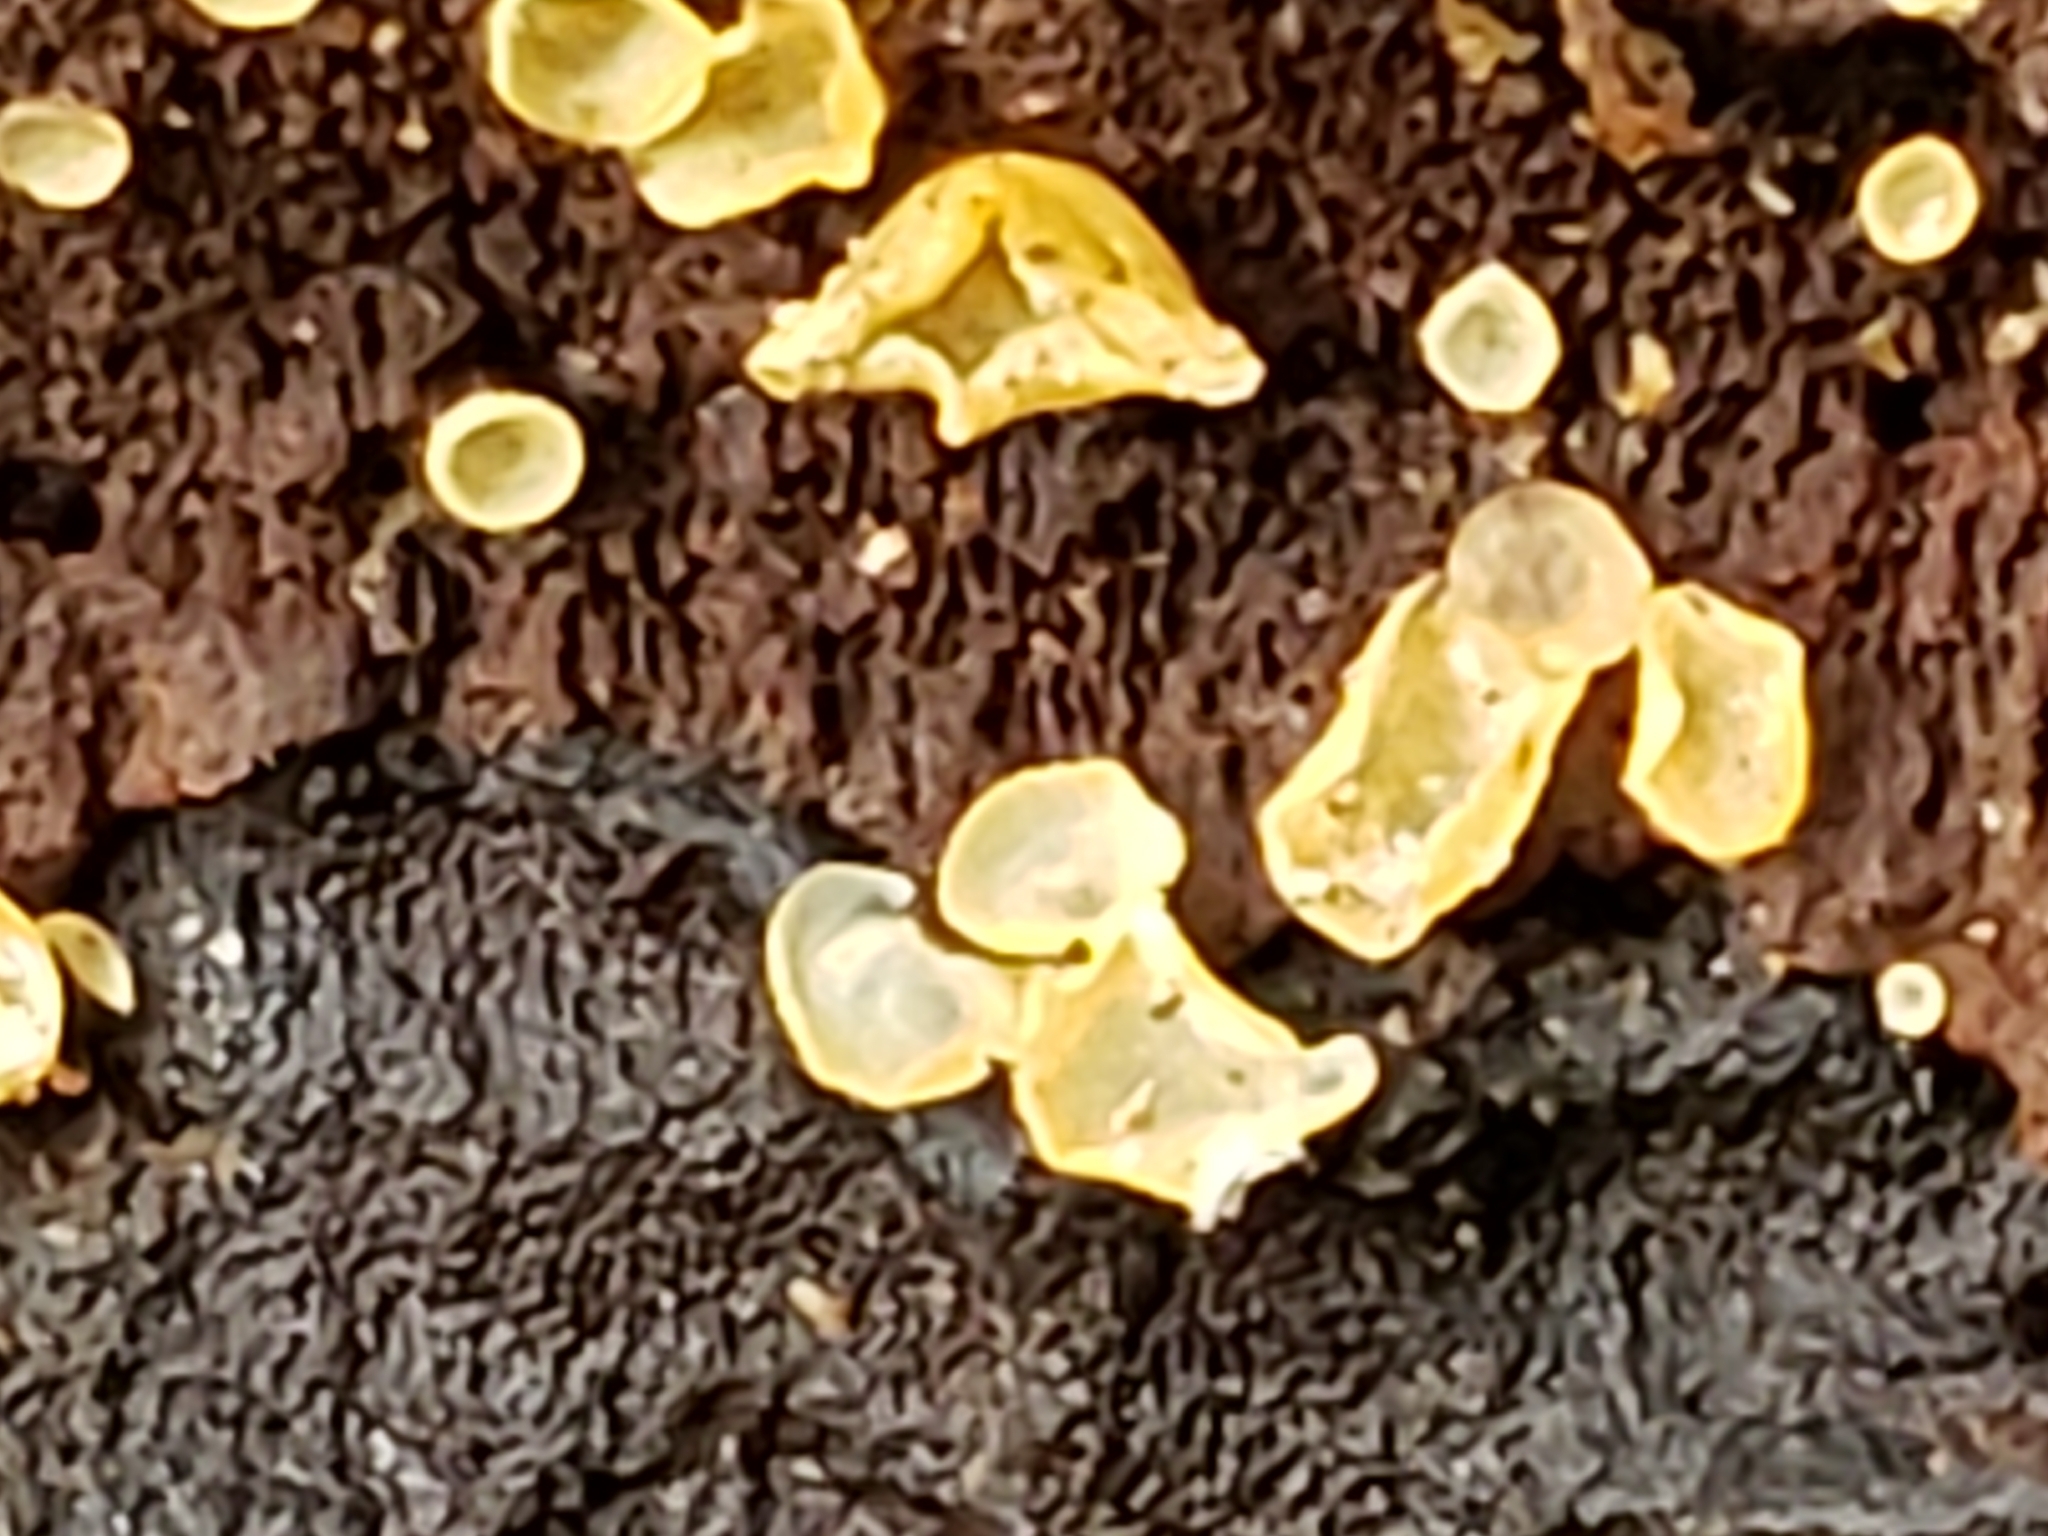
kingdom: Fungi
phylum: Ascomycota
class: Orbiliomycetes
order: Orbiliales
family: Orbiliaceae
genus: Orbilia
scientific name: Orbilia
